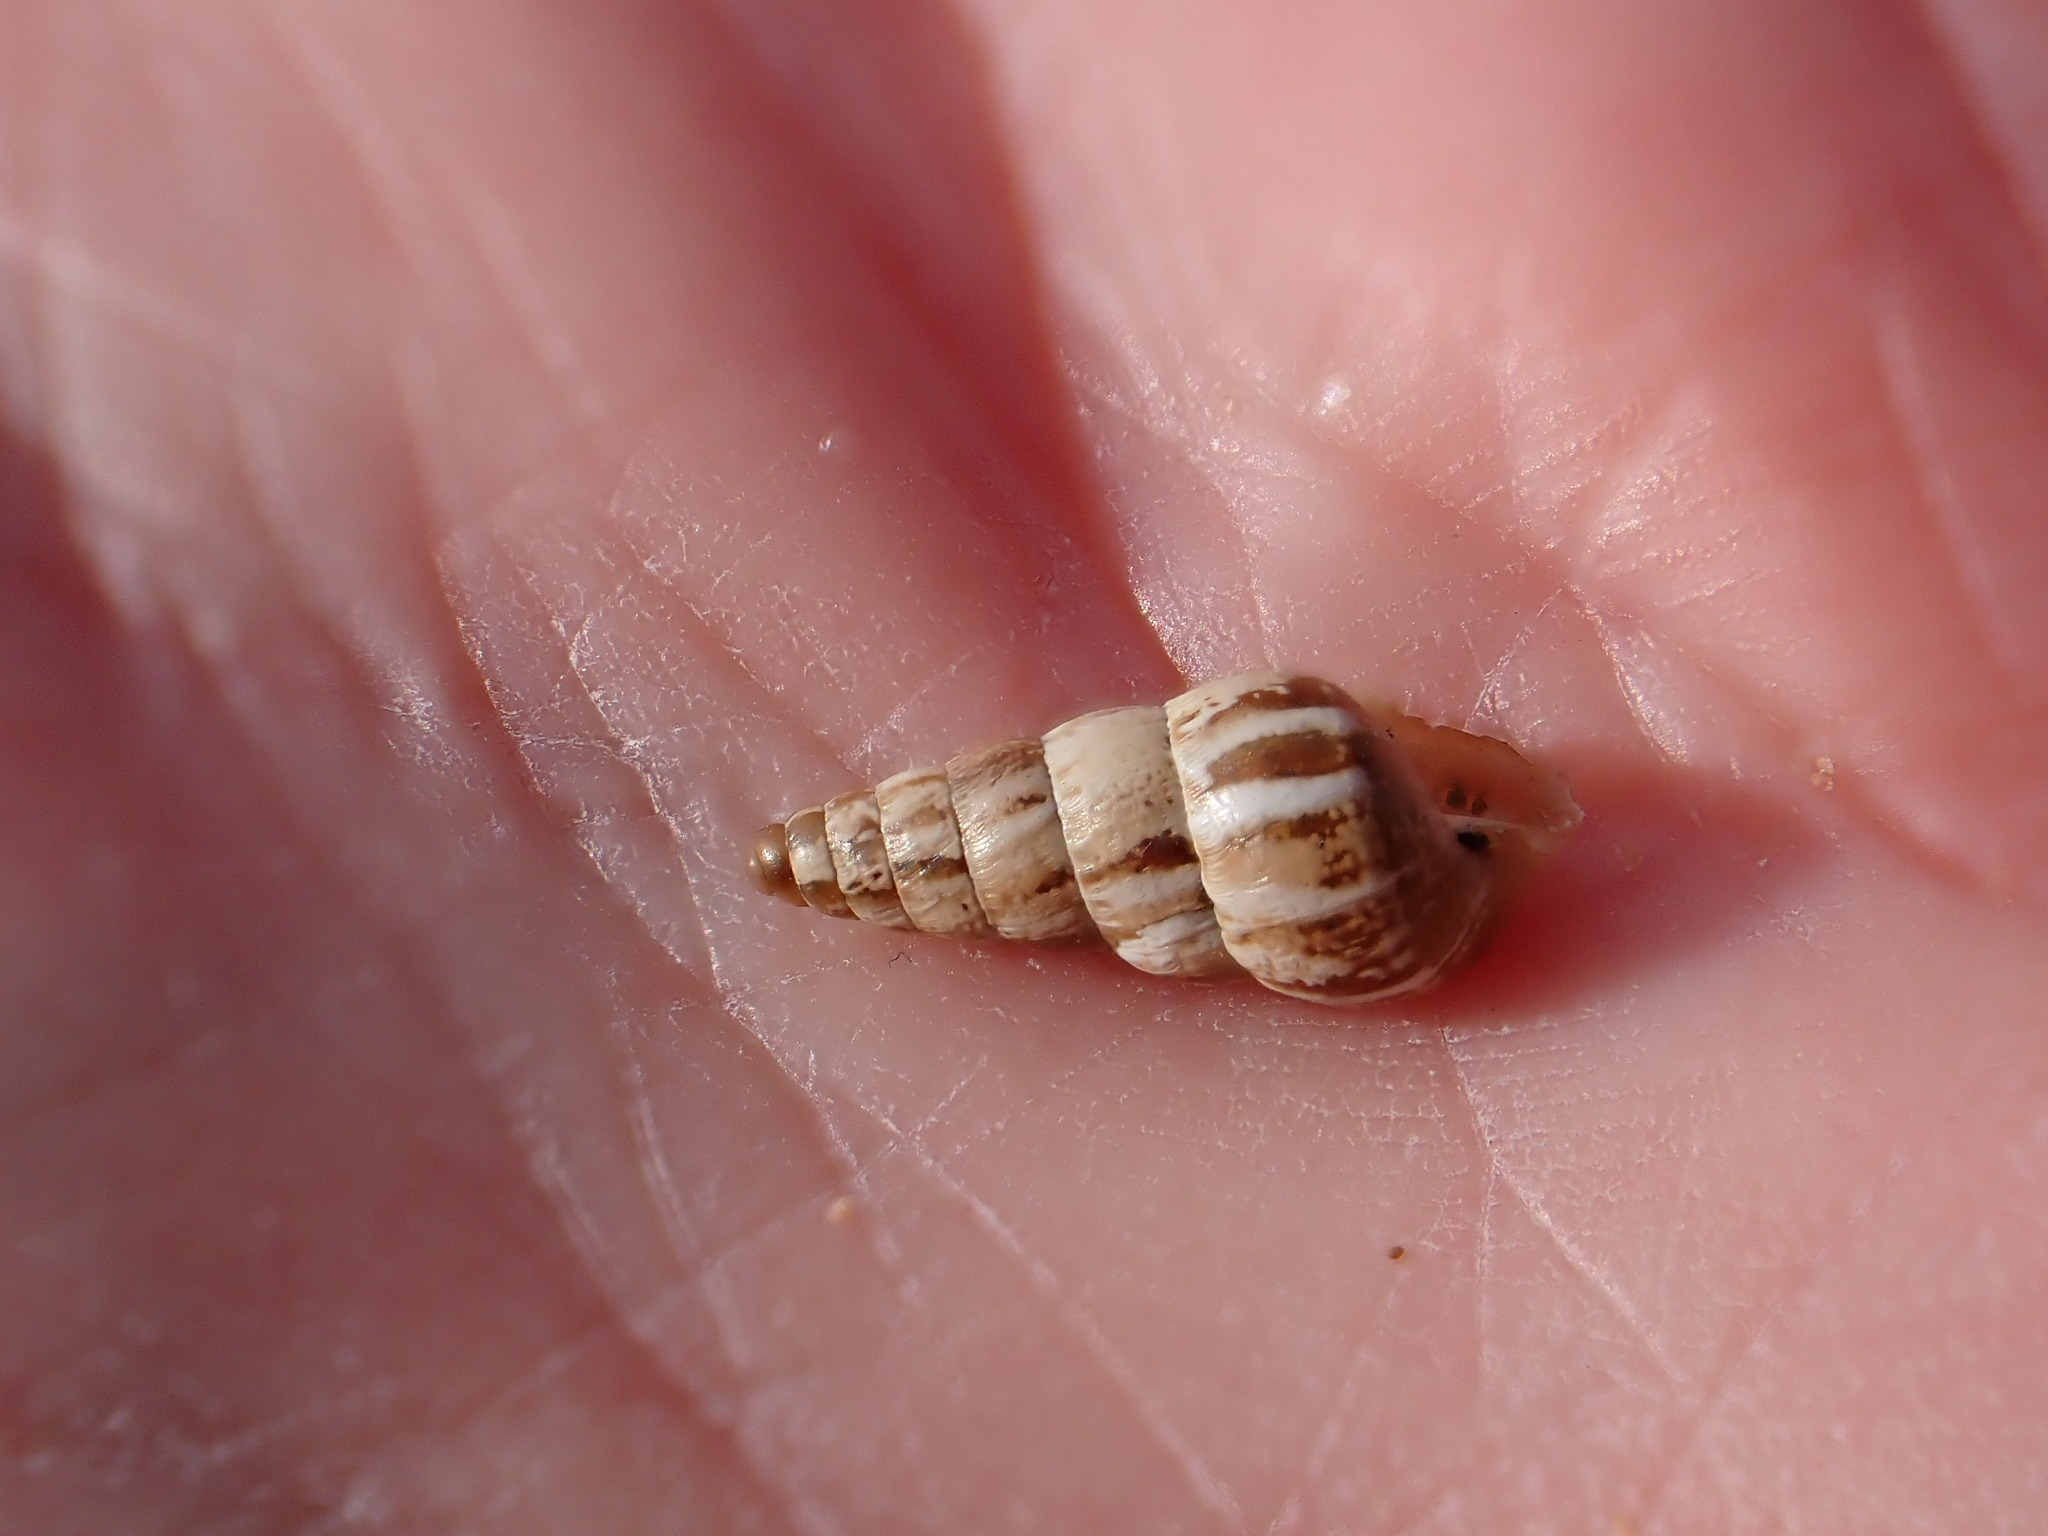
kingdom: Animalia
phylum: Mollusca
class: Gastropoda
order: Stylommatophora
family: Geomitridae
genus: Cochlicella
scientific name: Cochlicella acuta
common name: Pointed snail
